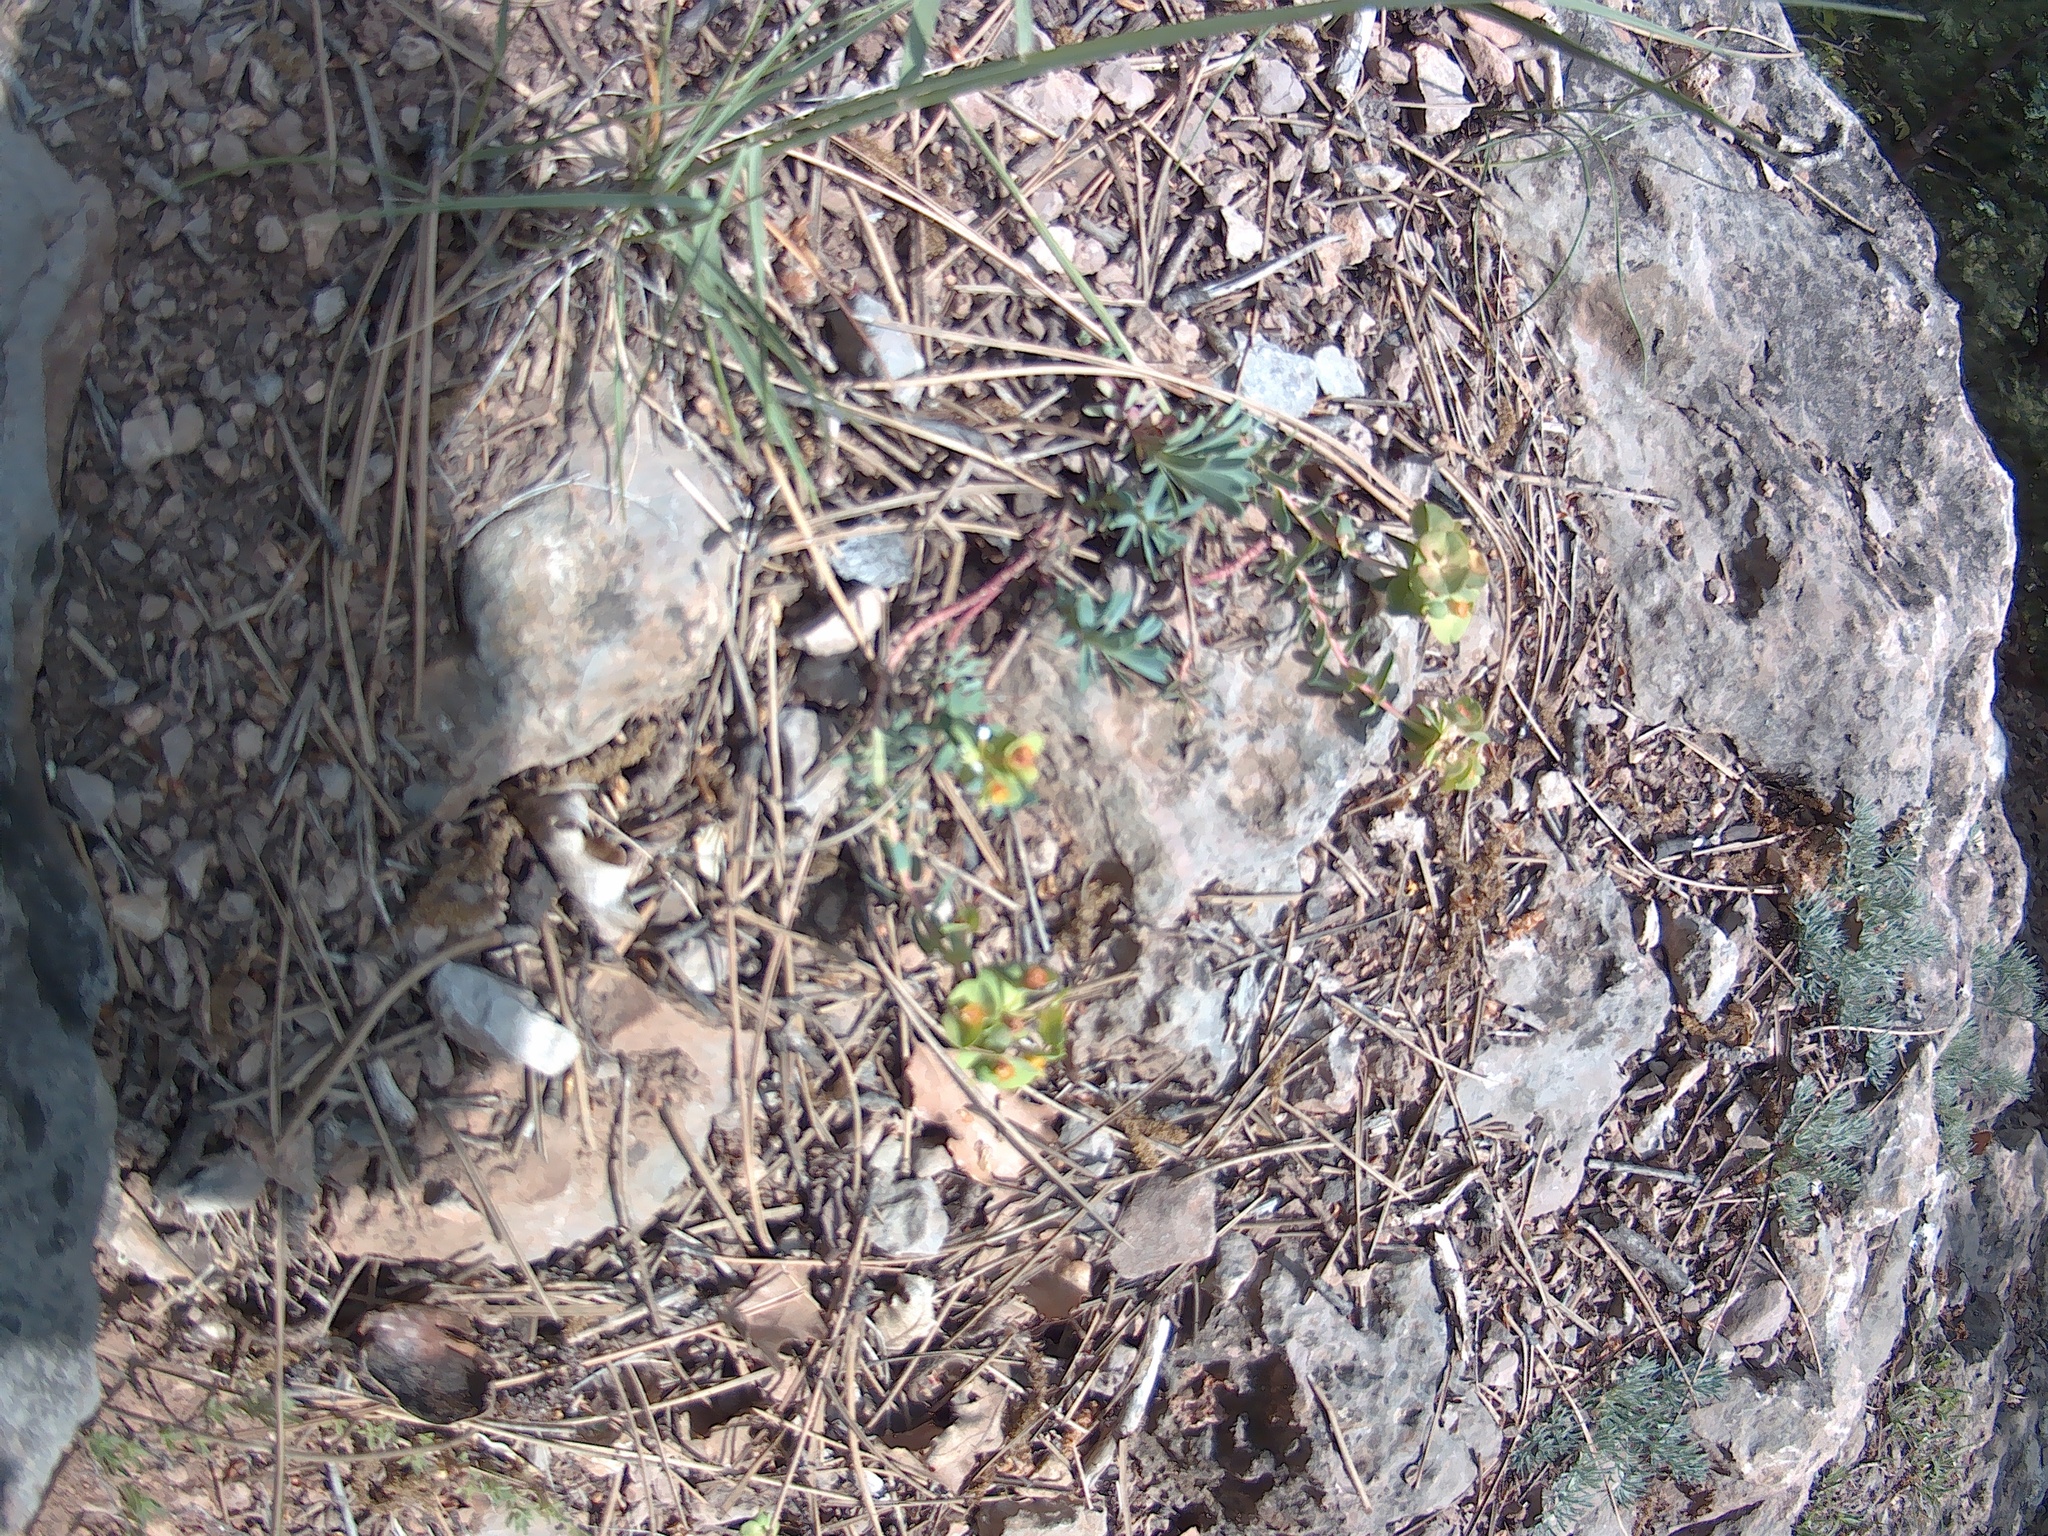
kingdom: Plantae
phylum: Tracheophyta
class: Magnoliopsida
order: Malpighiales
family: Euphorbiaceae
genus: Esula
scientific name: Esula
